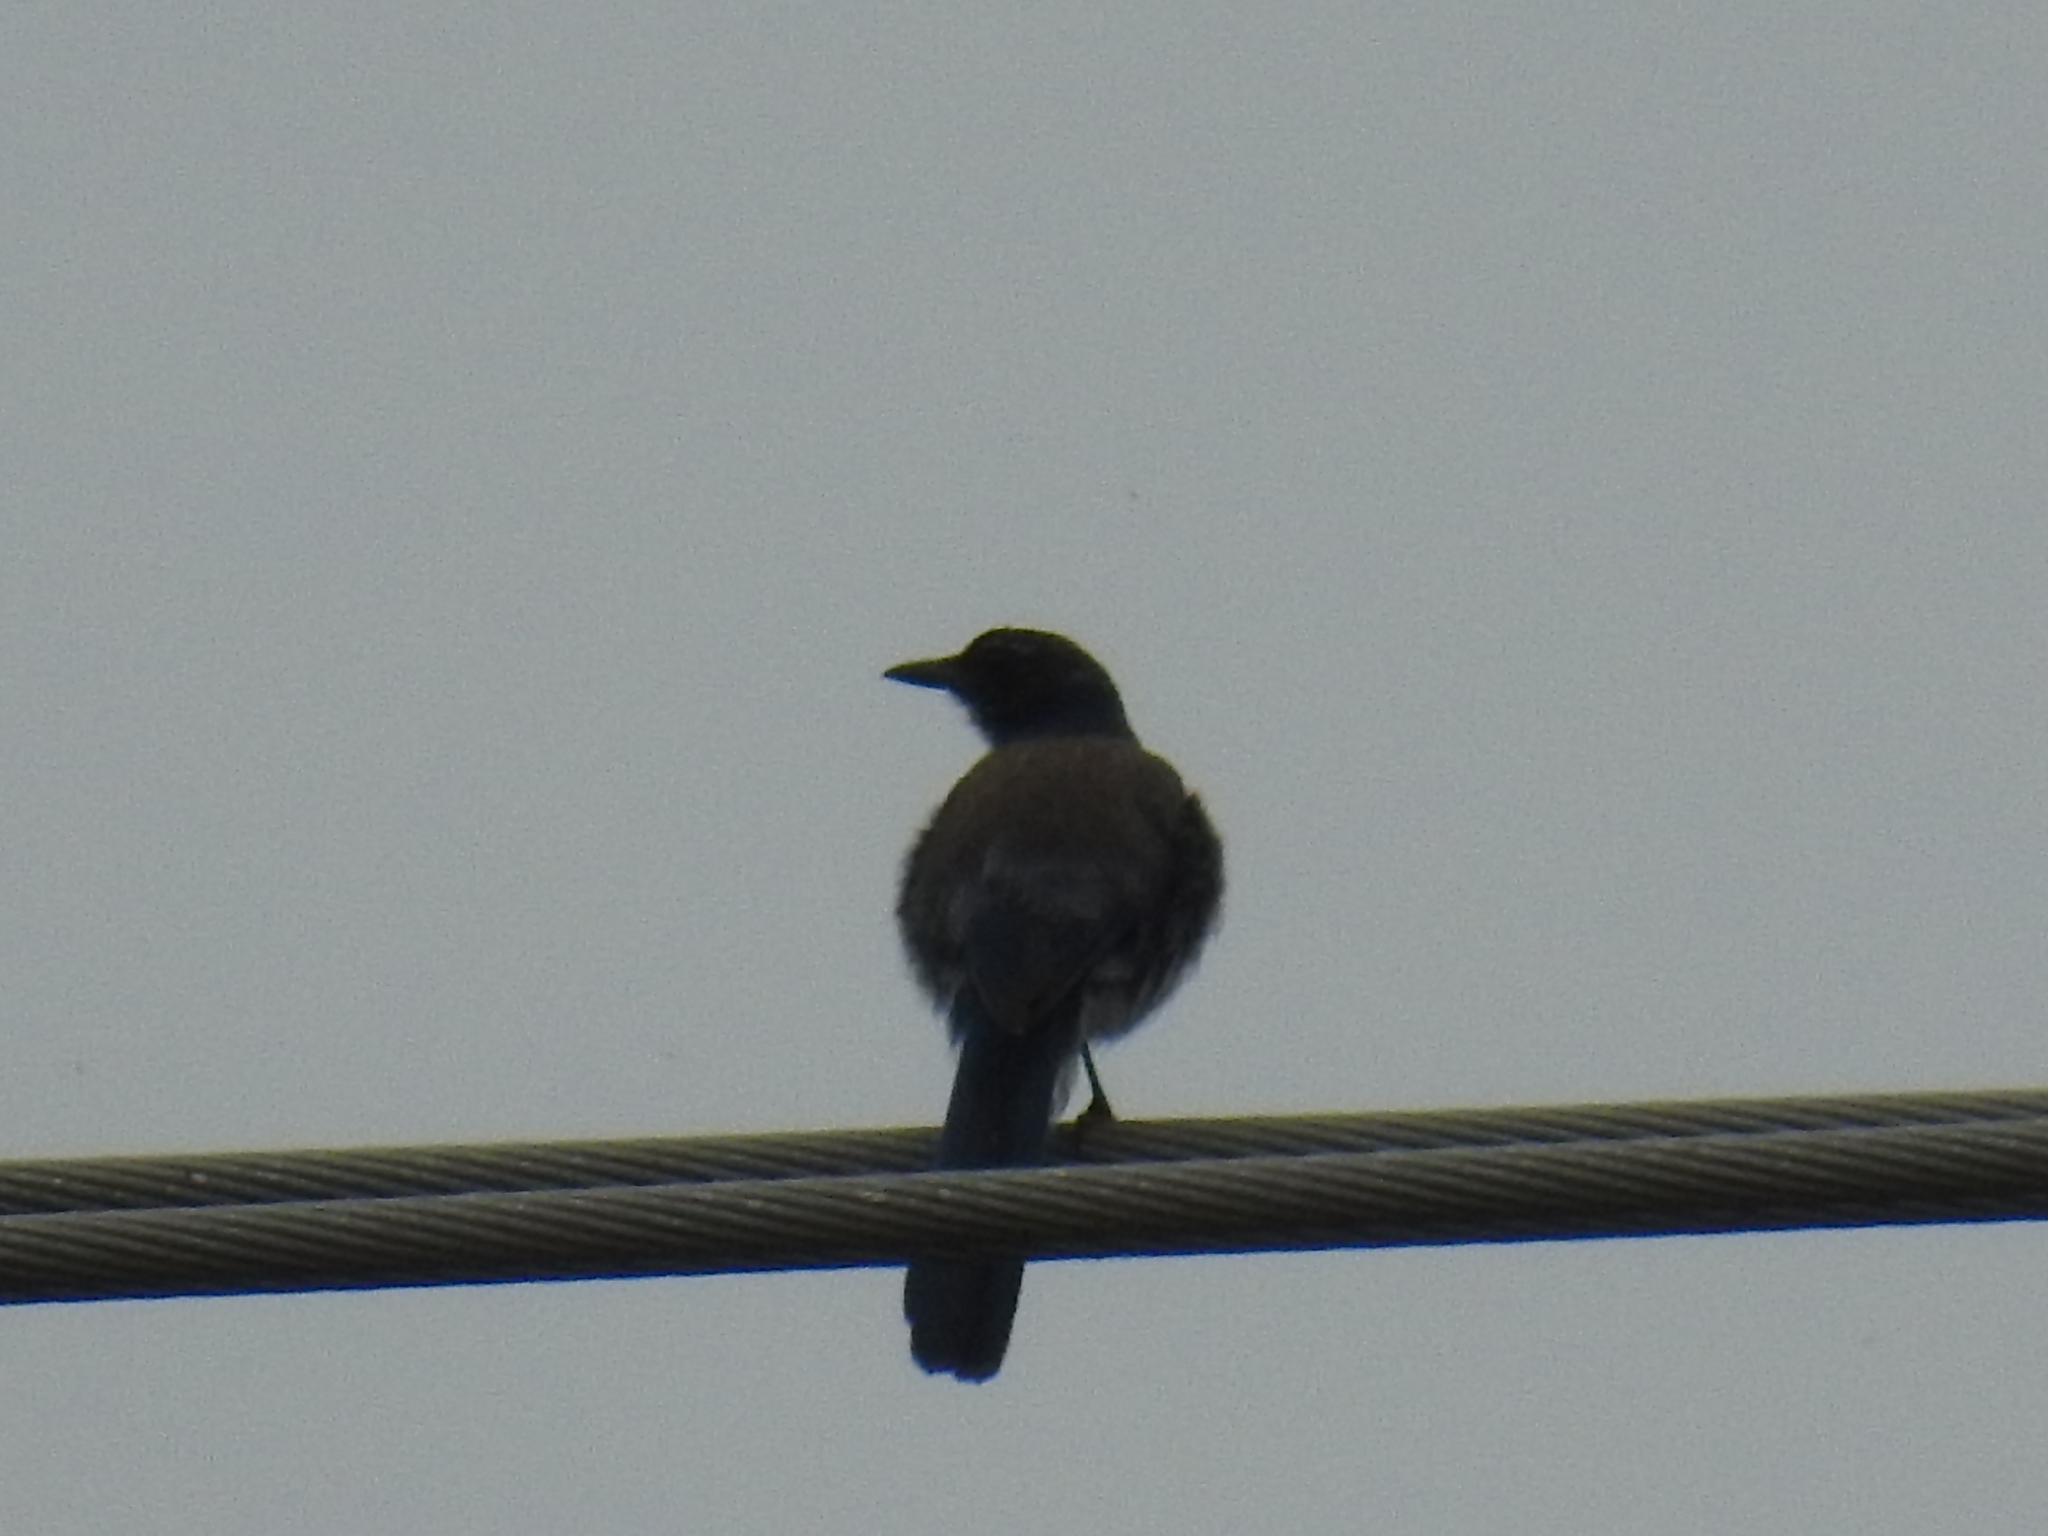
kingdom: Animalia
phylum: Chordata
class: Aves
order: Passeriformes
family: Corvidae
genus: Aphelocoma
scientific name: Aphelocoma californica
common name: California scrub-jay
